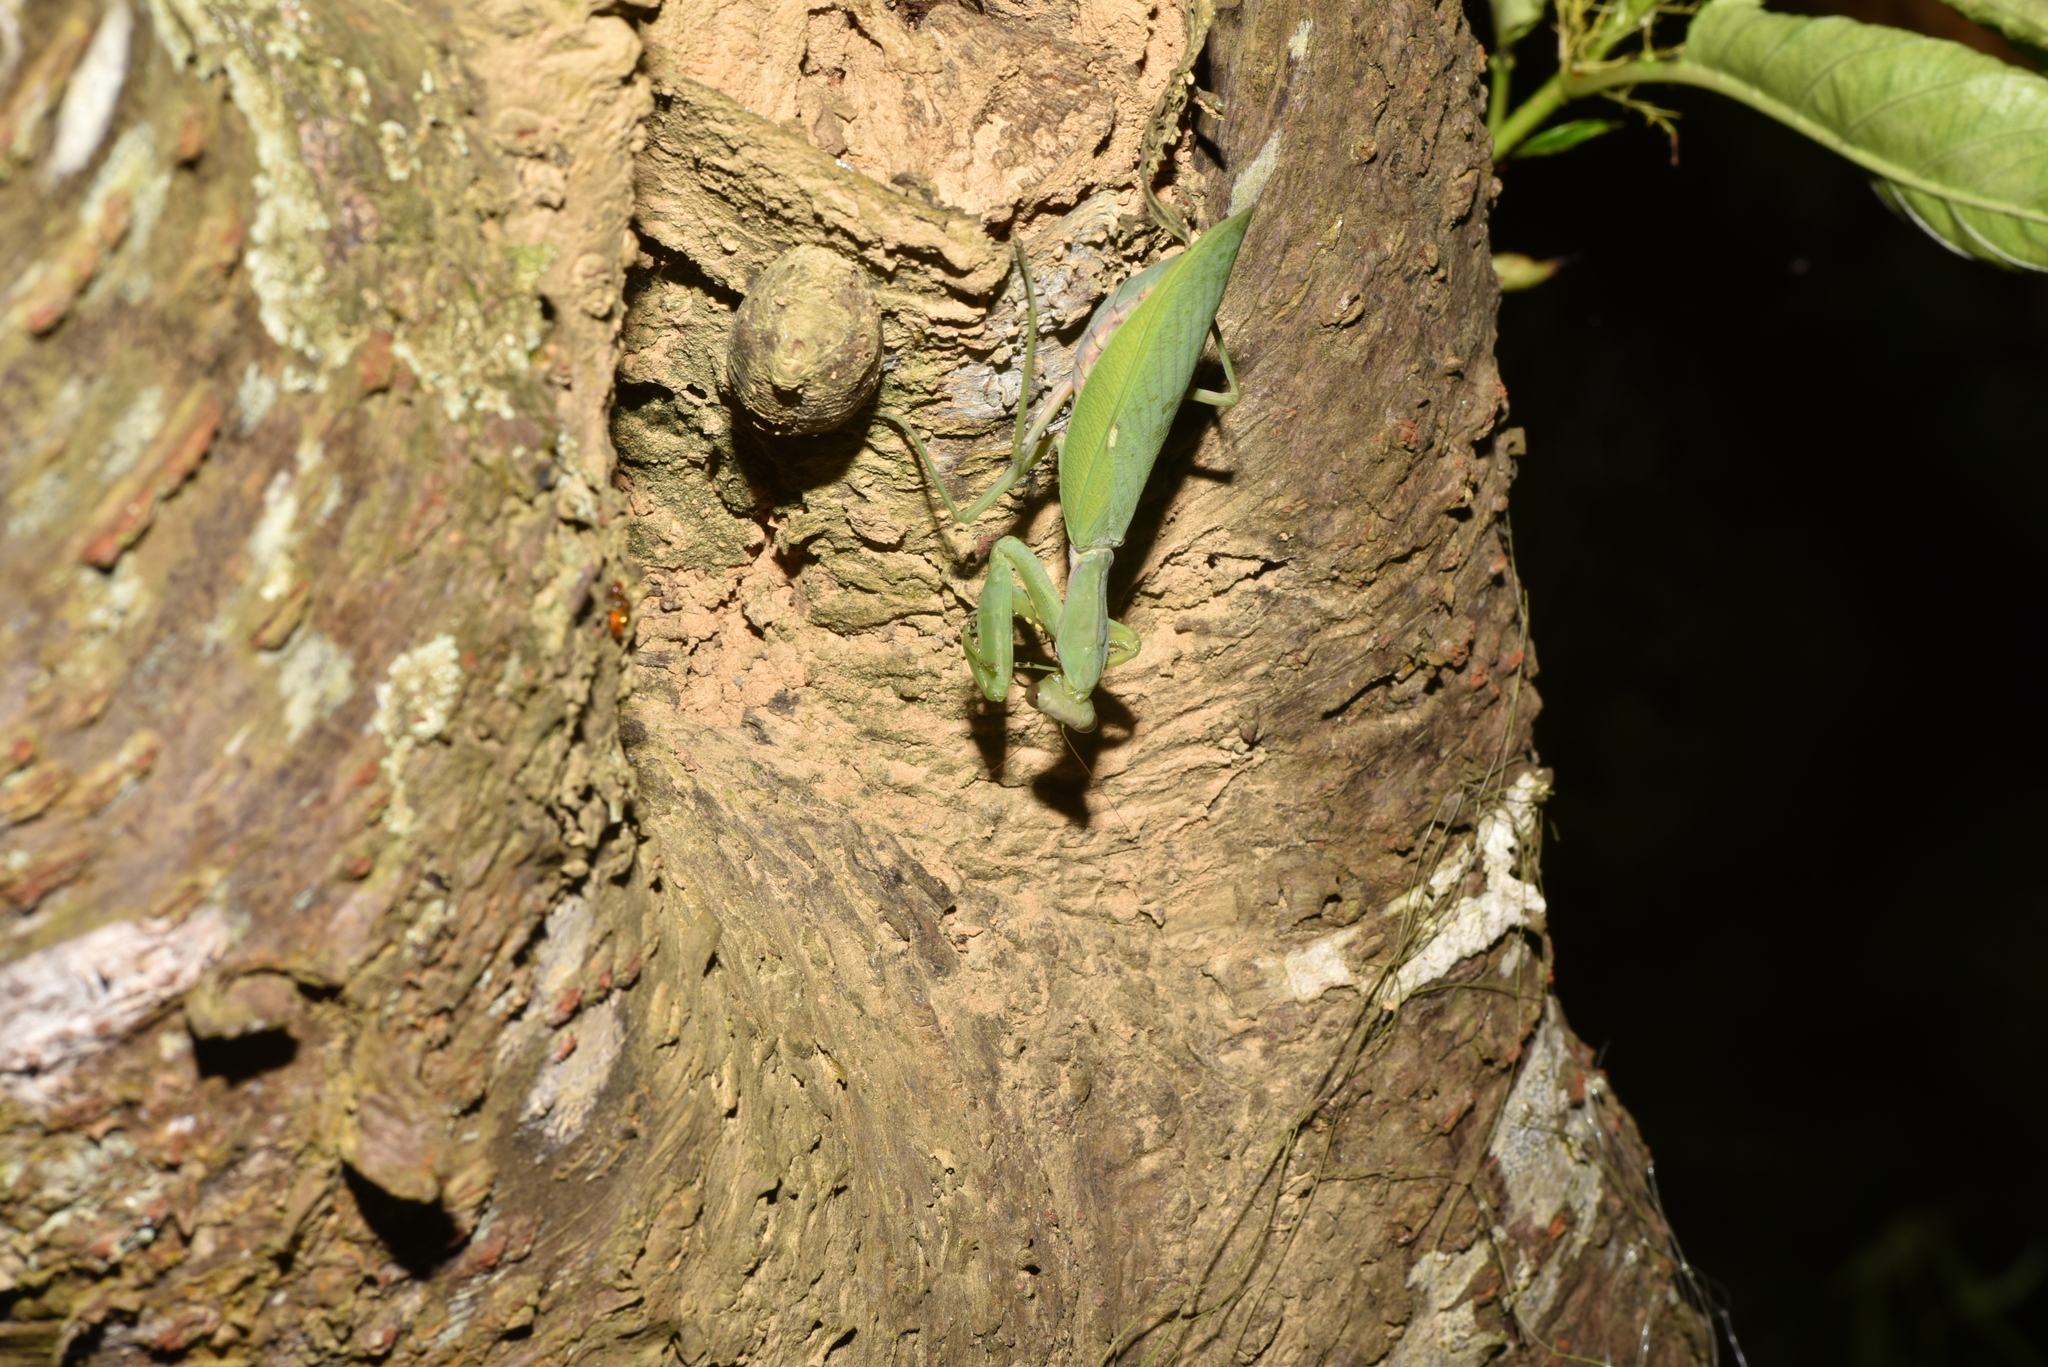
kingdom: Animalia
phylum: Arthropoda
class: Insecta
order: Mantodea
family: Mantidae
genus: Hierodula
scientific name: Hierodula patellifera
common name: Asian mantis
